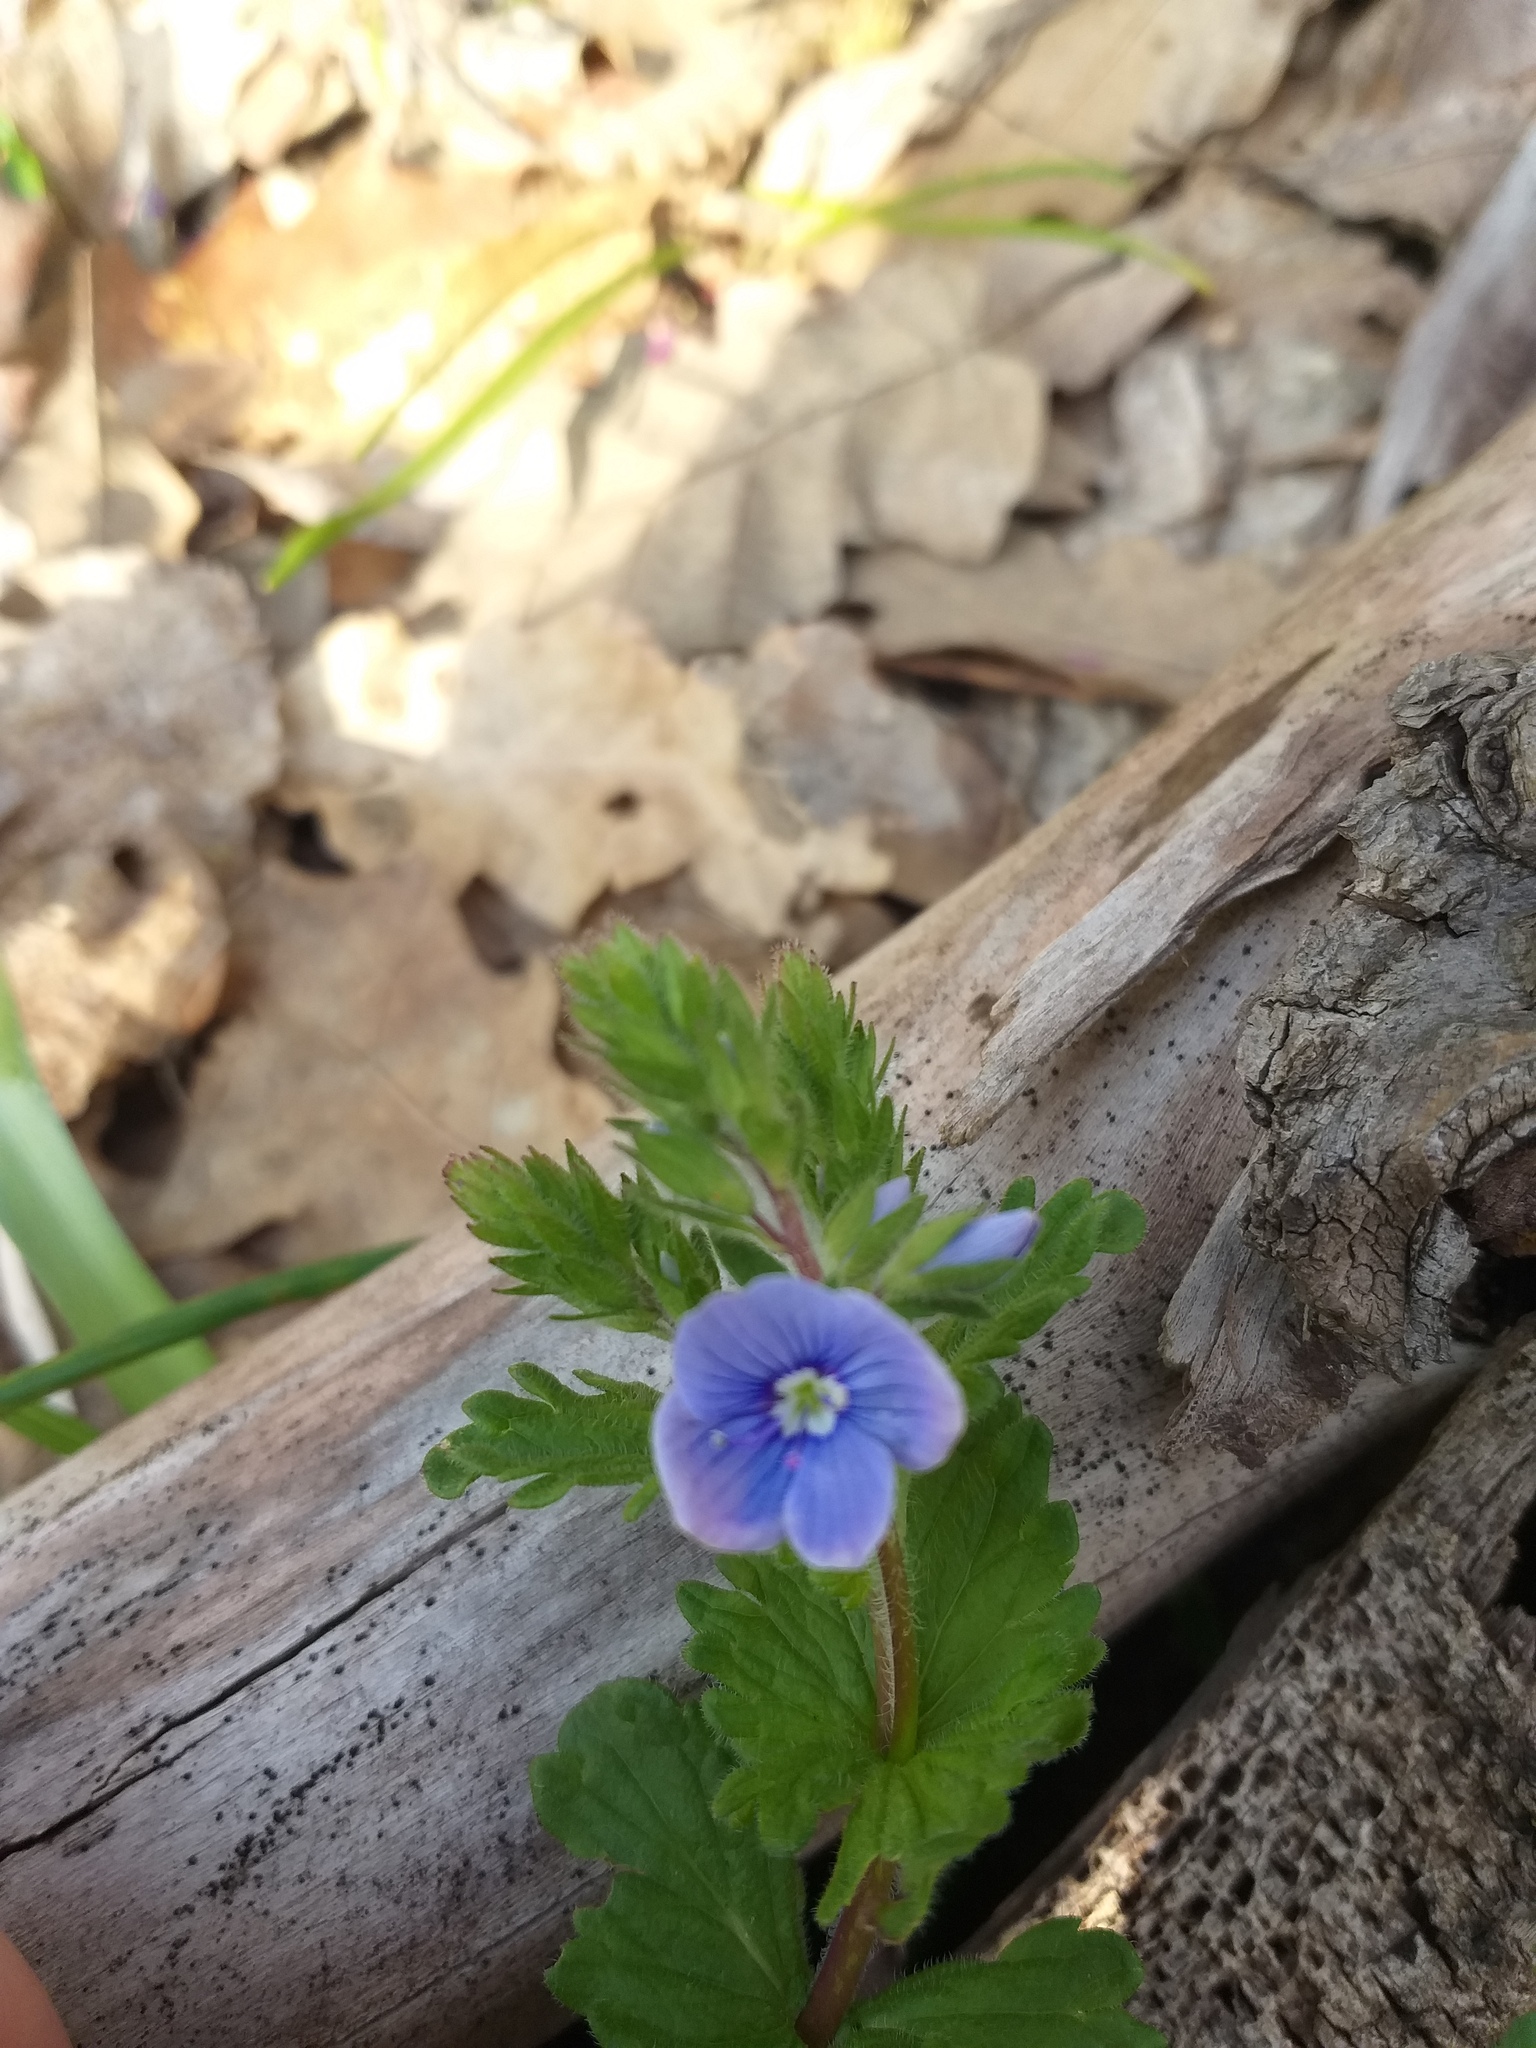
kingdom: Plantae
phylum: Tracheophyta
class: Magnoliopsida
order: Lamiales
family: Plantaginaceae
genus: Veronica
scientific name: Veronica chamaedrys
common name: Germander speedwell
